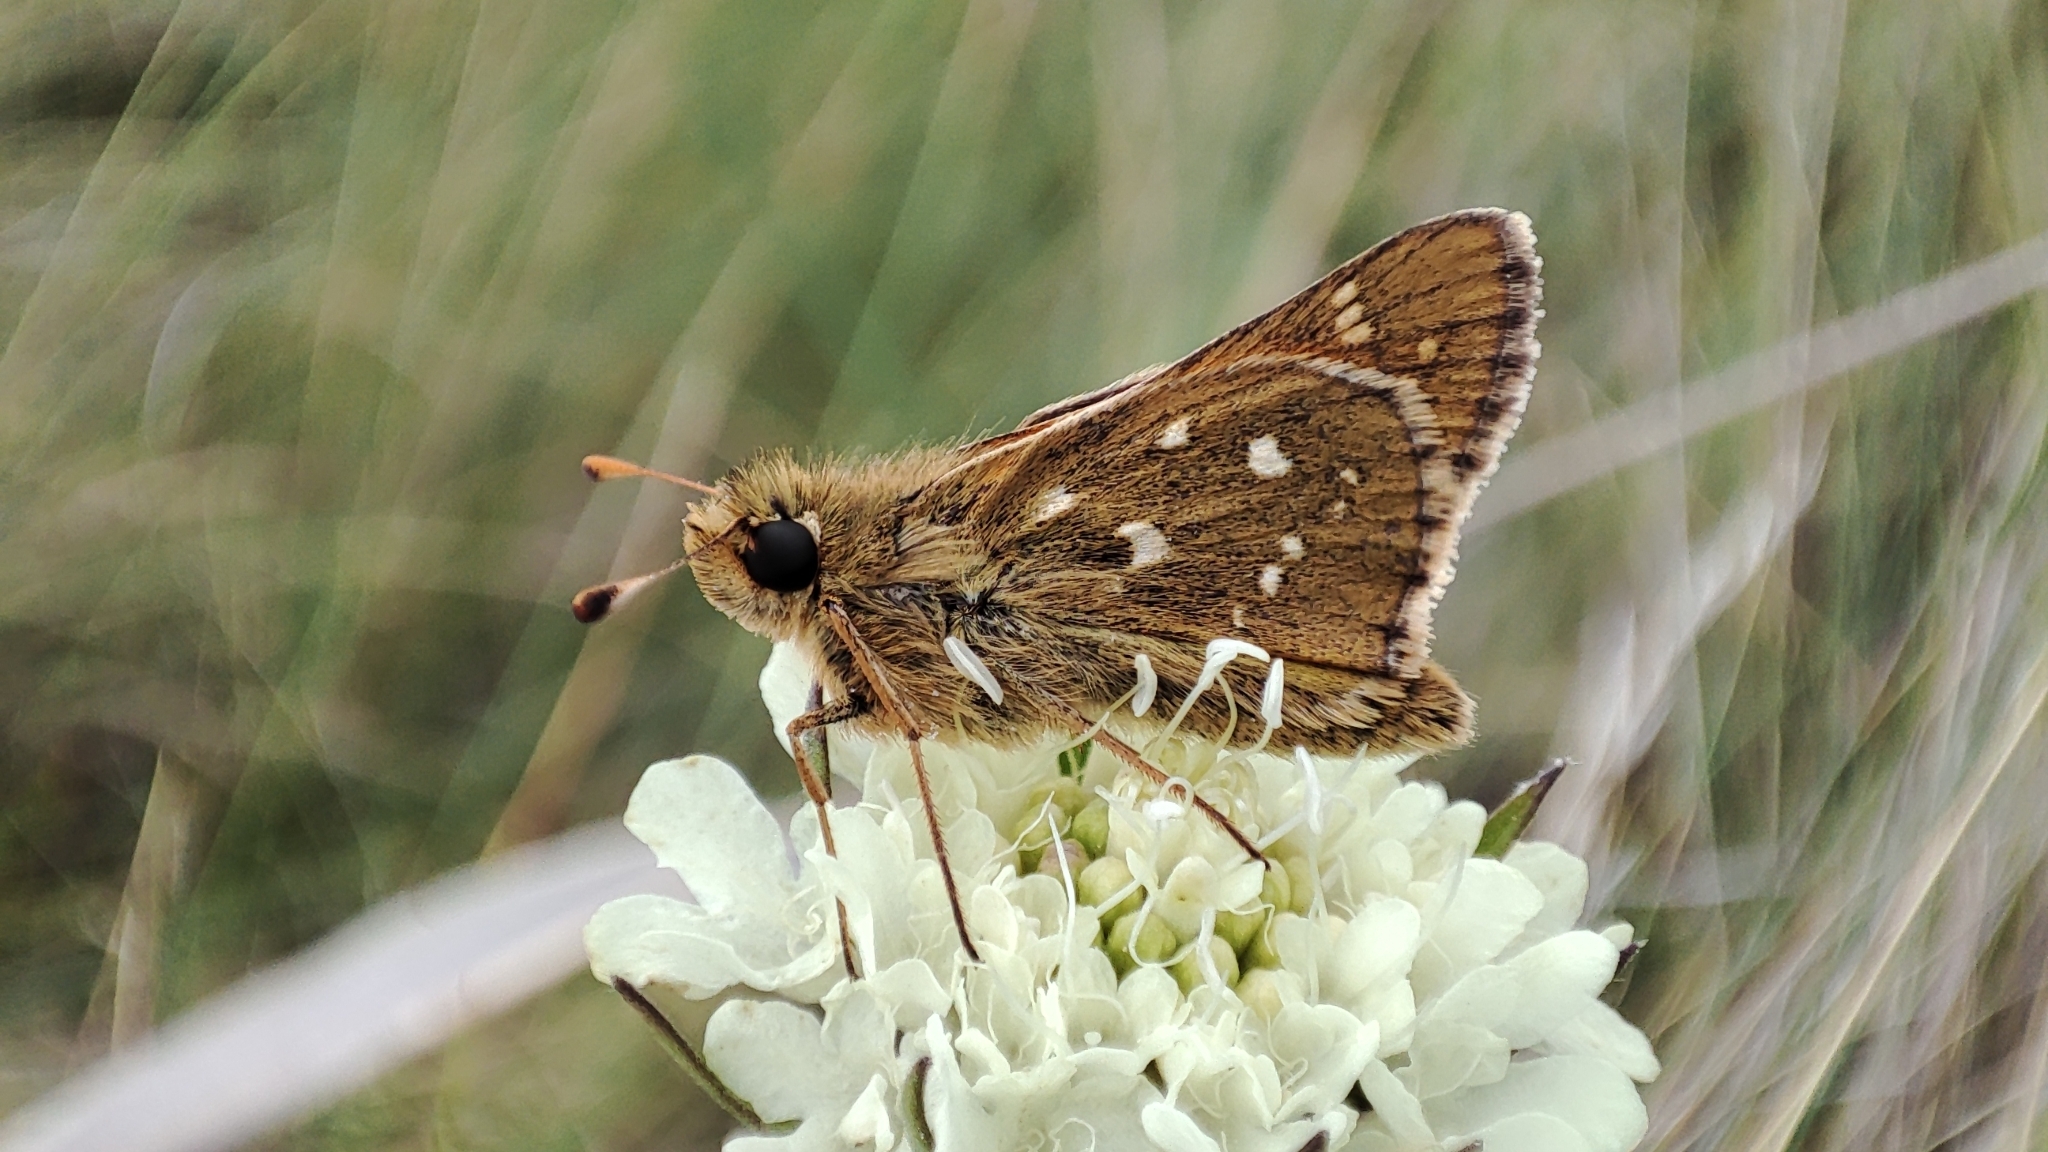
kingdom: Animalia
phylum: Arthropoda
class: Insecta
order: Lepidoptera
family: Hesperiidae
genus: Hesperia
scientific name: Hesperia comma
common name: Common branded skipper
